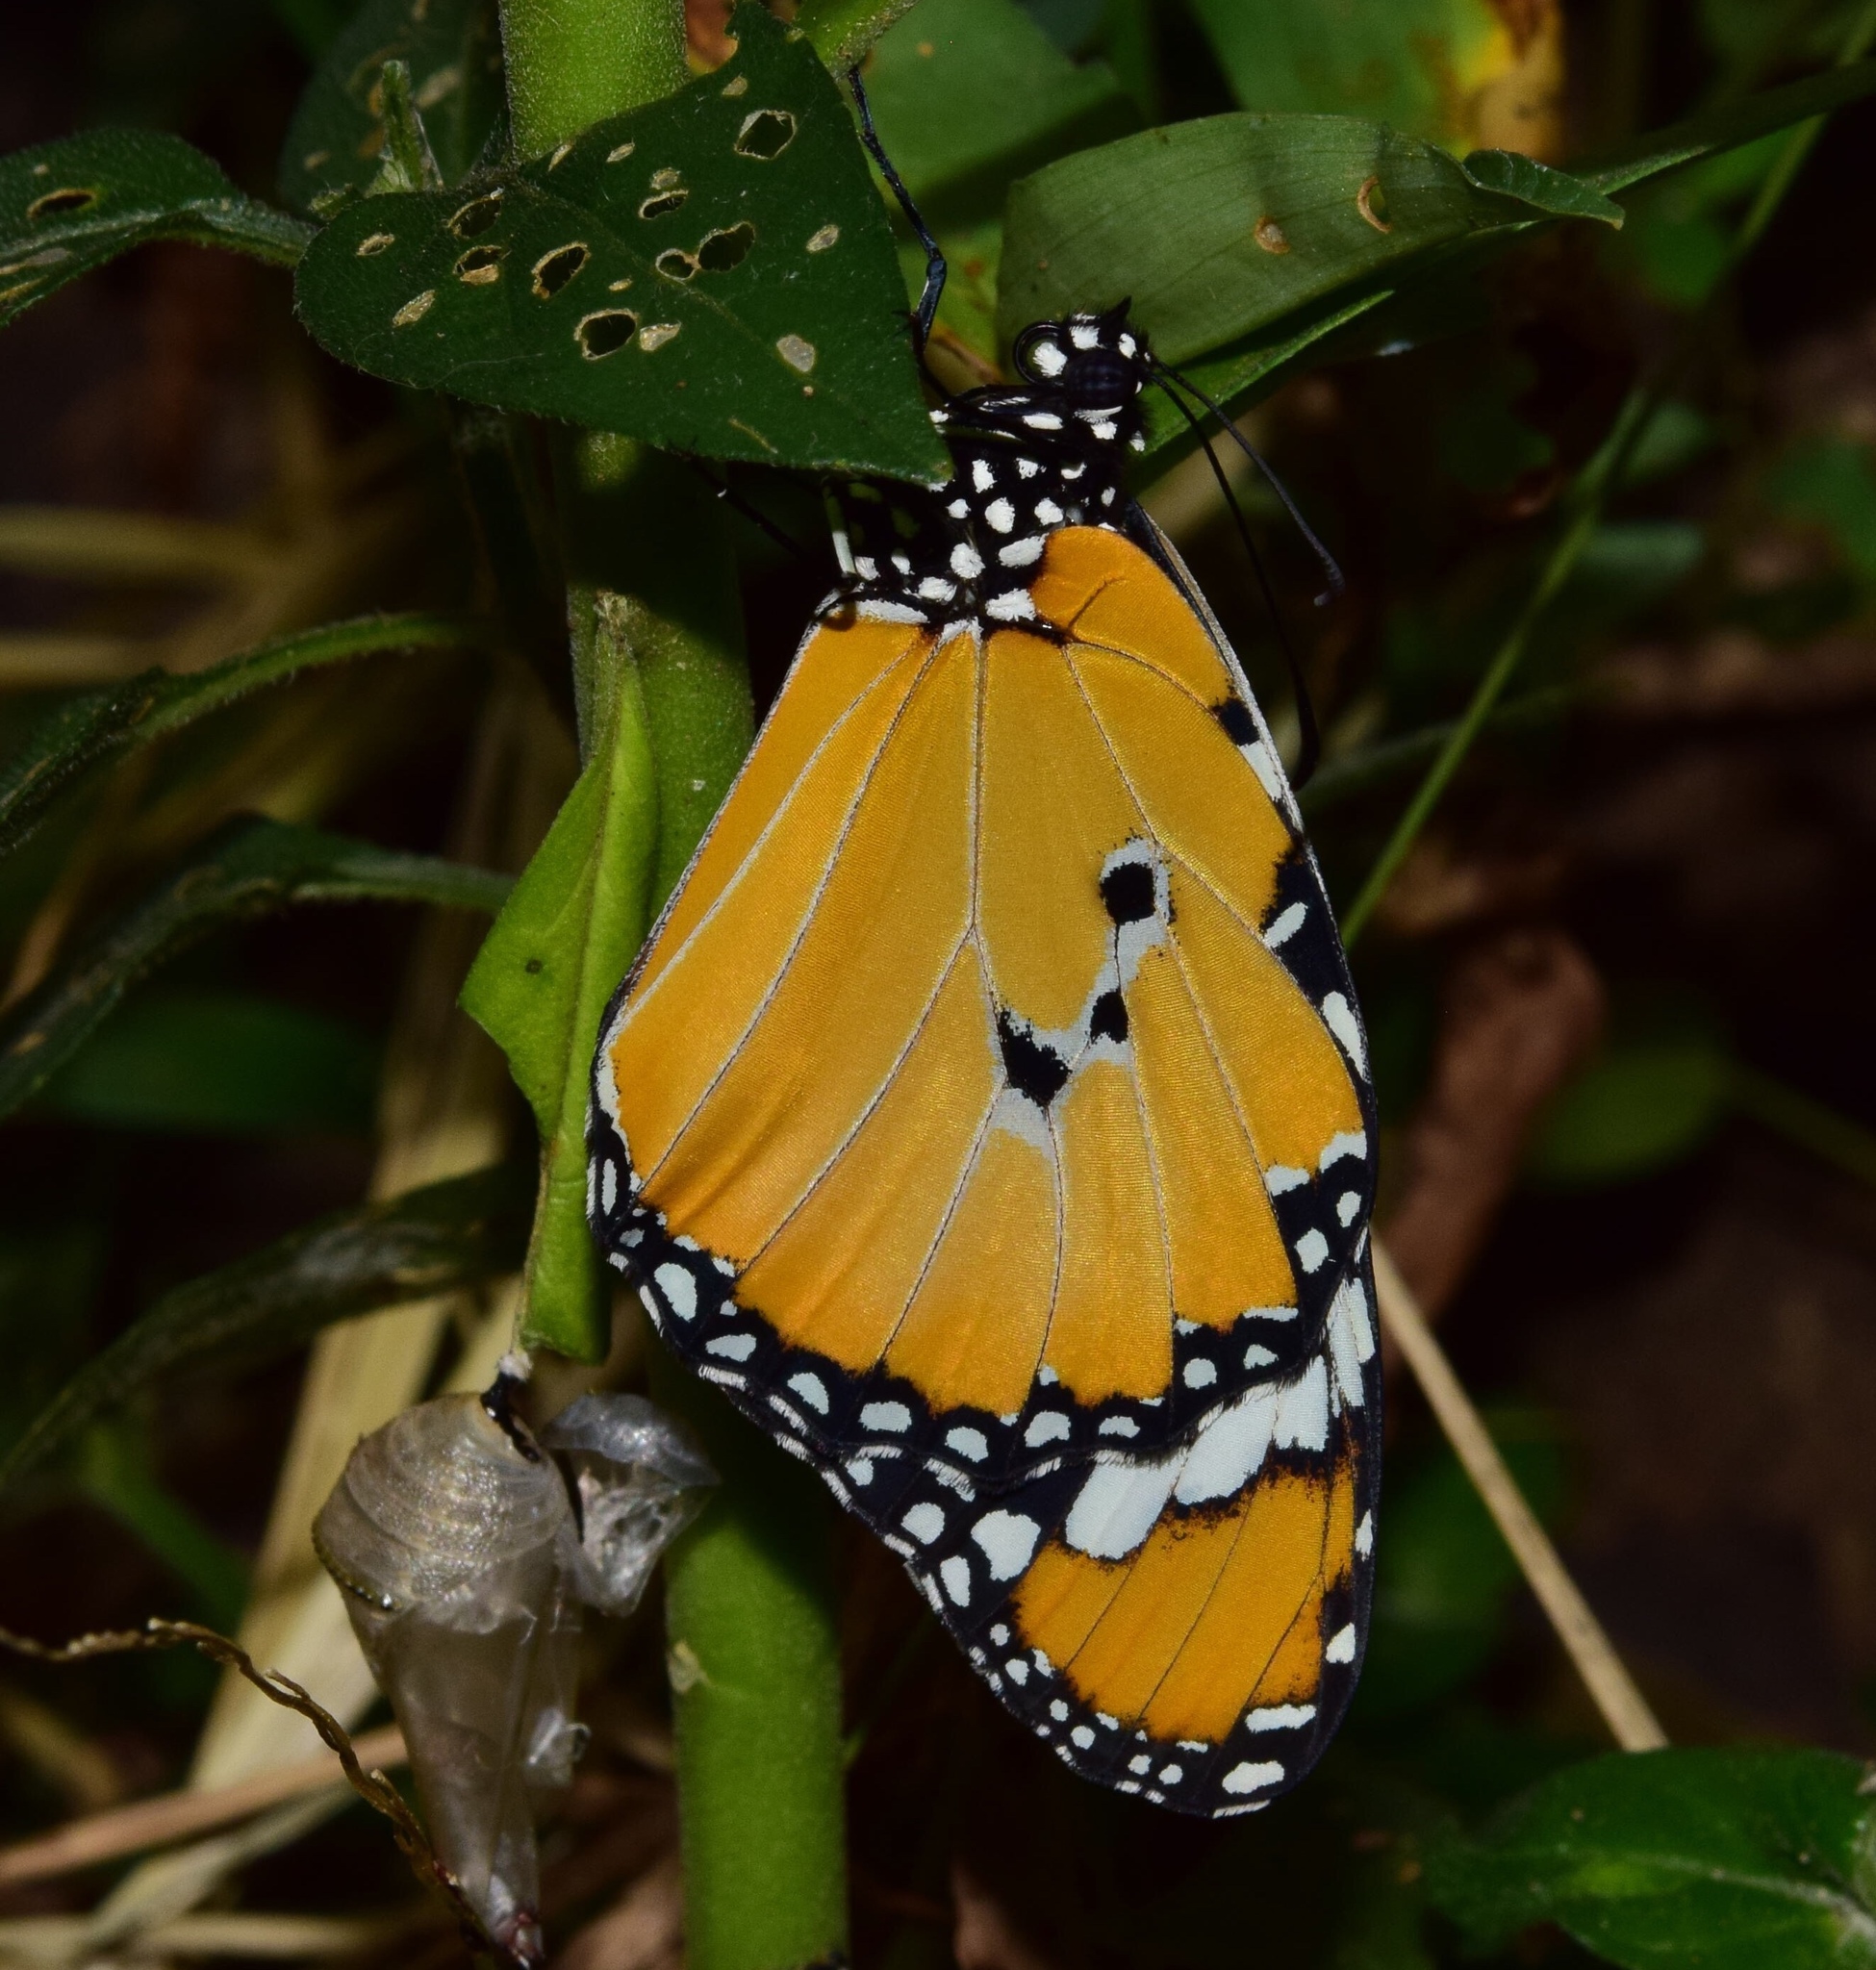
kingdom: Animalia
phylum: Arthropoda
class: Insecta
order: Lepidoptera
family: Nymphalidae
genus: Danaus
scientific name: Danaus chrysippus
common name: Plain tiger
